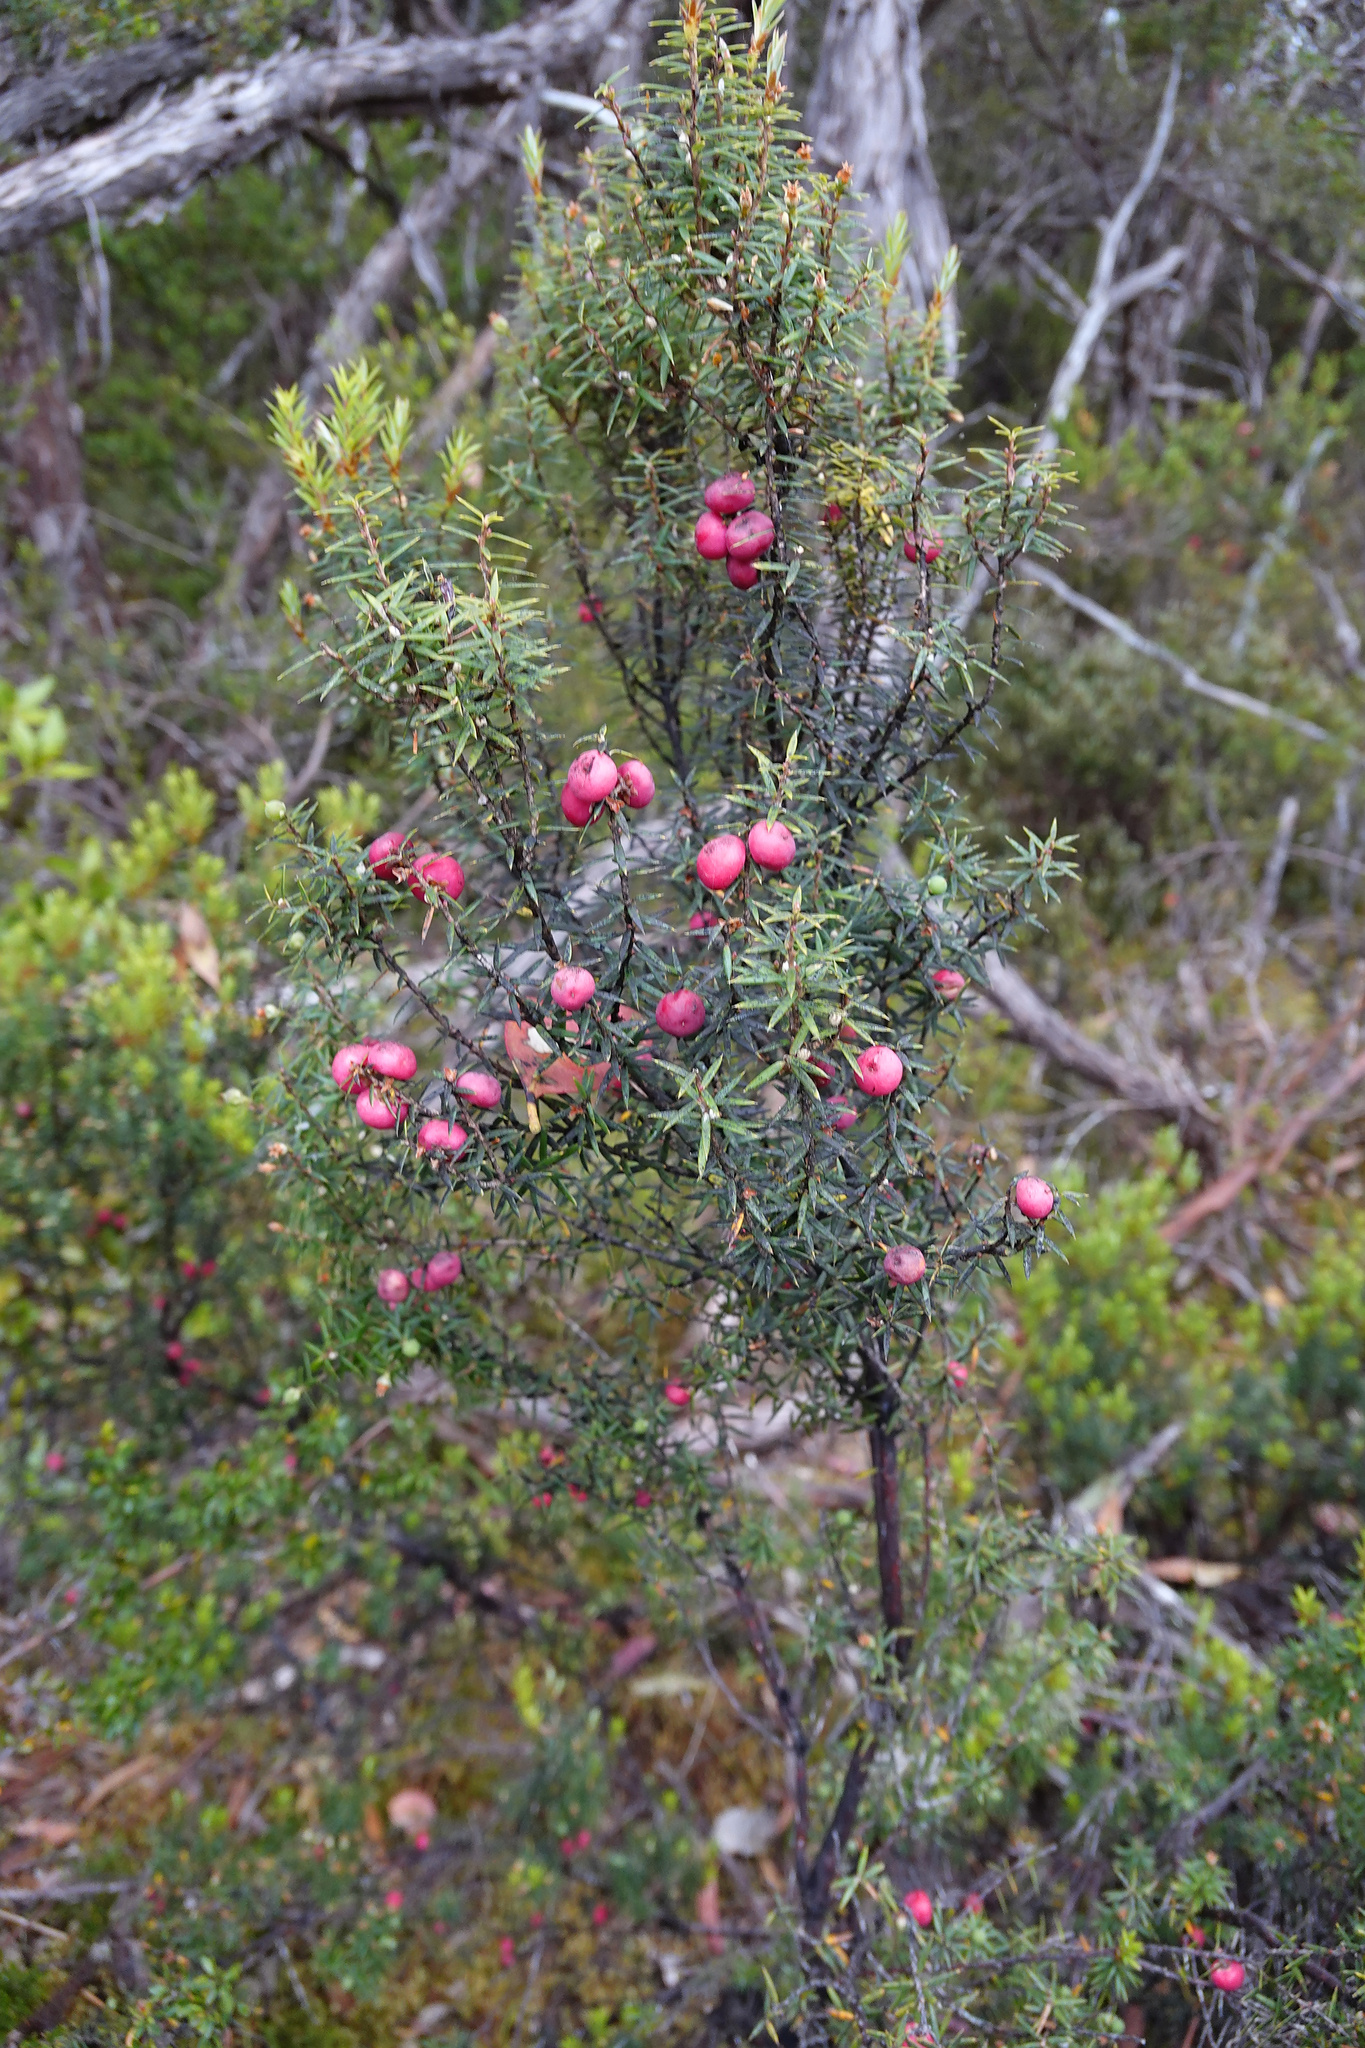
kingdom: Plantae
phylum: Tracheophyta
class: Magnoliopsida
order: Ericales
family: Ericaceae
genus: Leptecophylla
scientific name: Leptecophylla parvifolia
